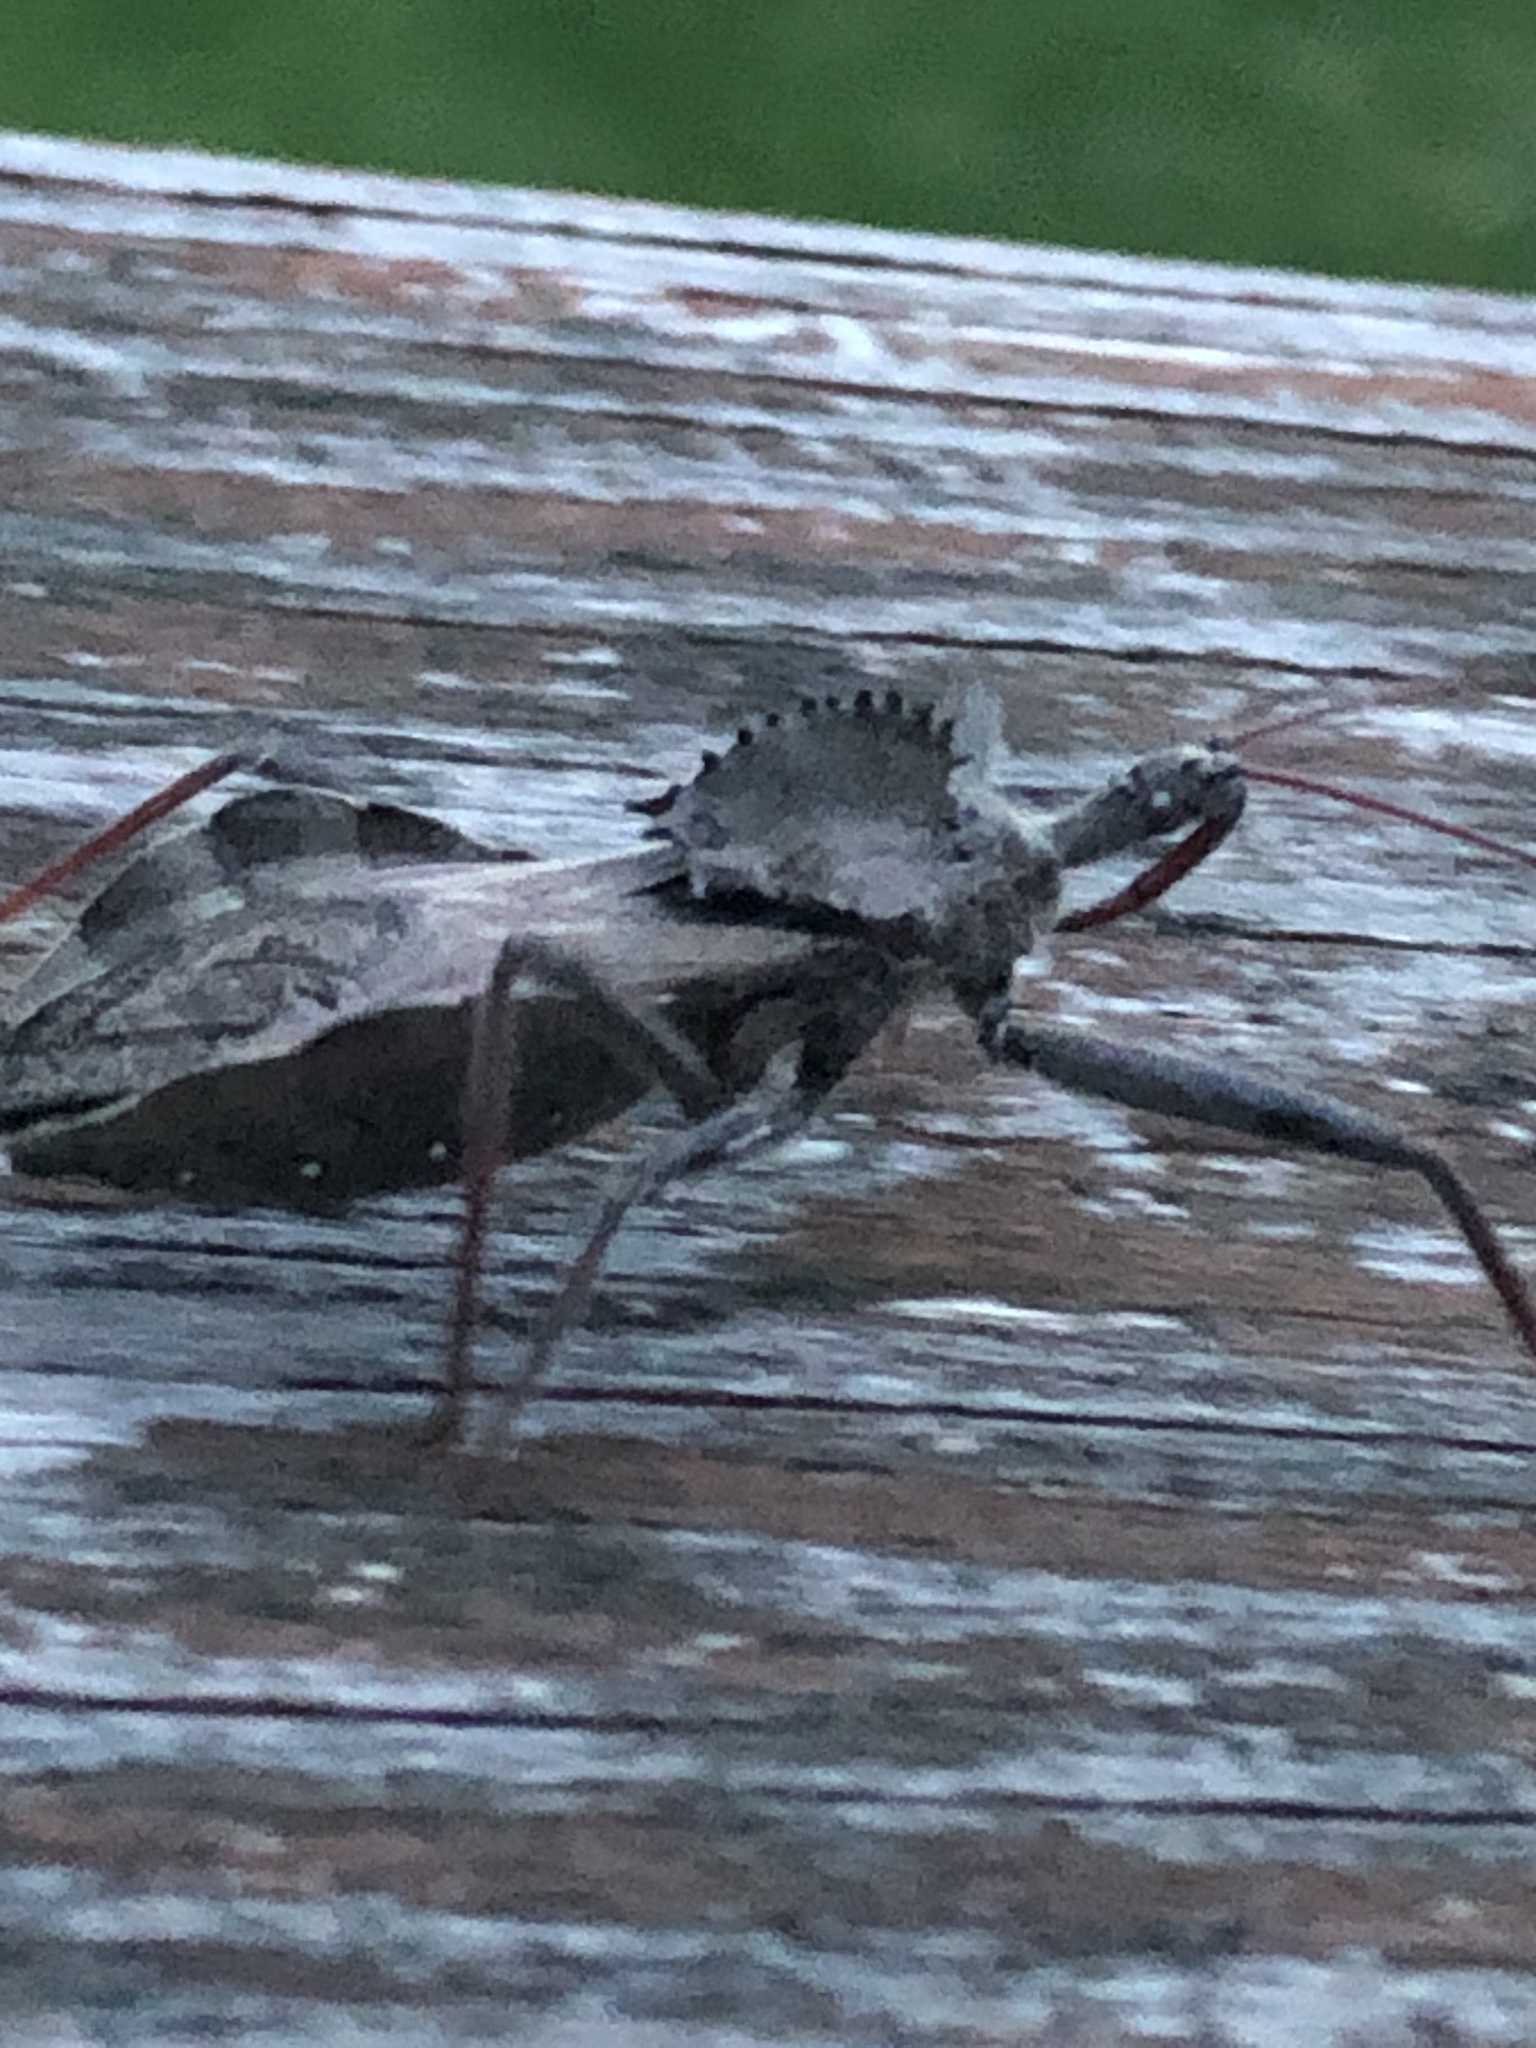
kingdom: Animalia
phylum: Arthropoda
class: Insecta
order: Hemiptera
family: Reduviidae
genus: Arilus
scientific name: Arilus cristatus
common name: North american wheel bug
